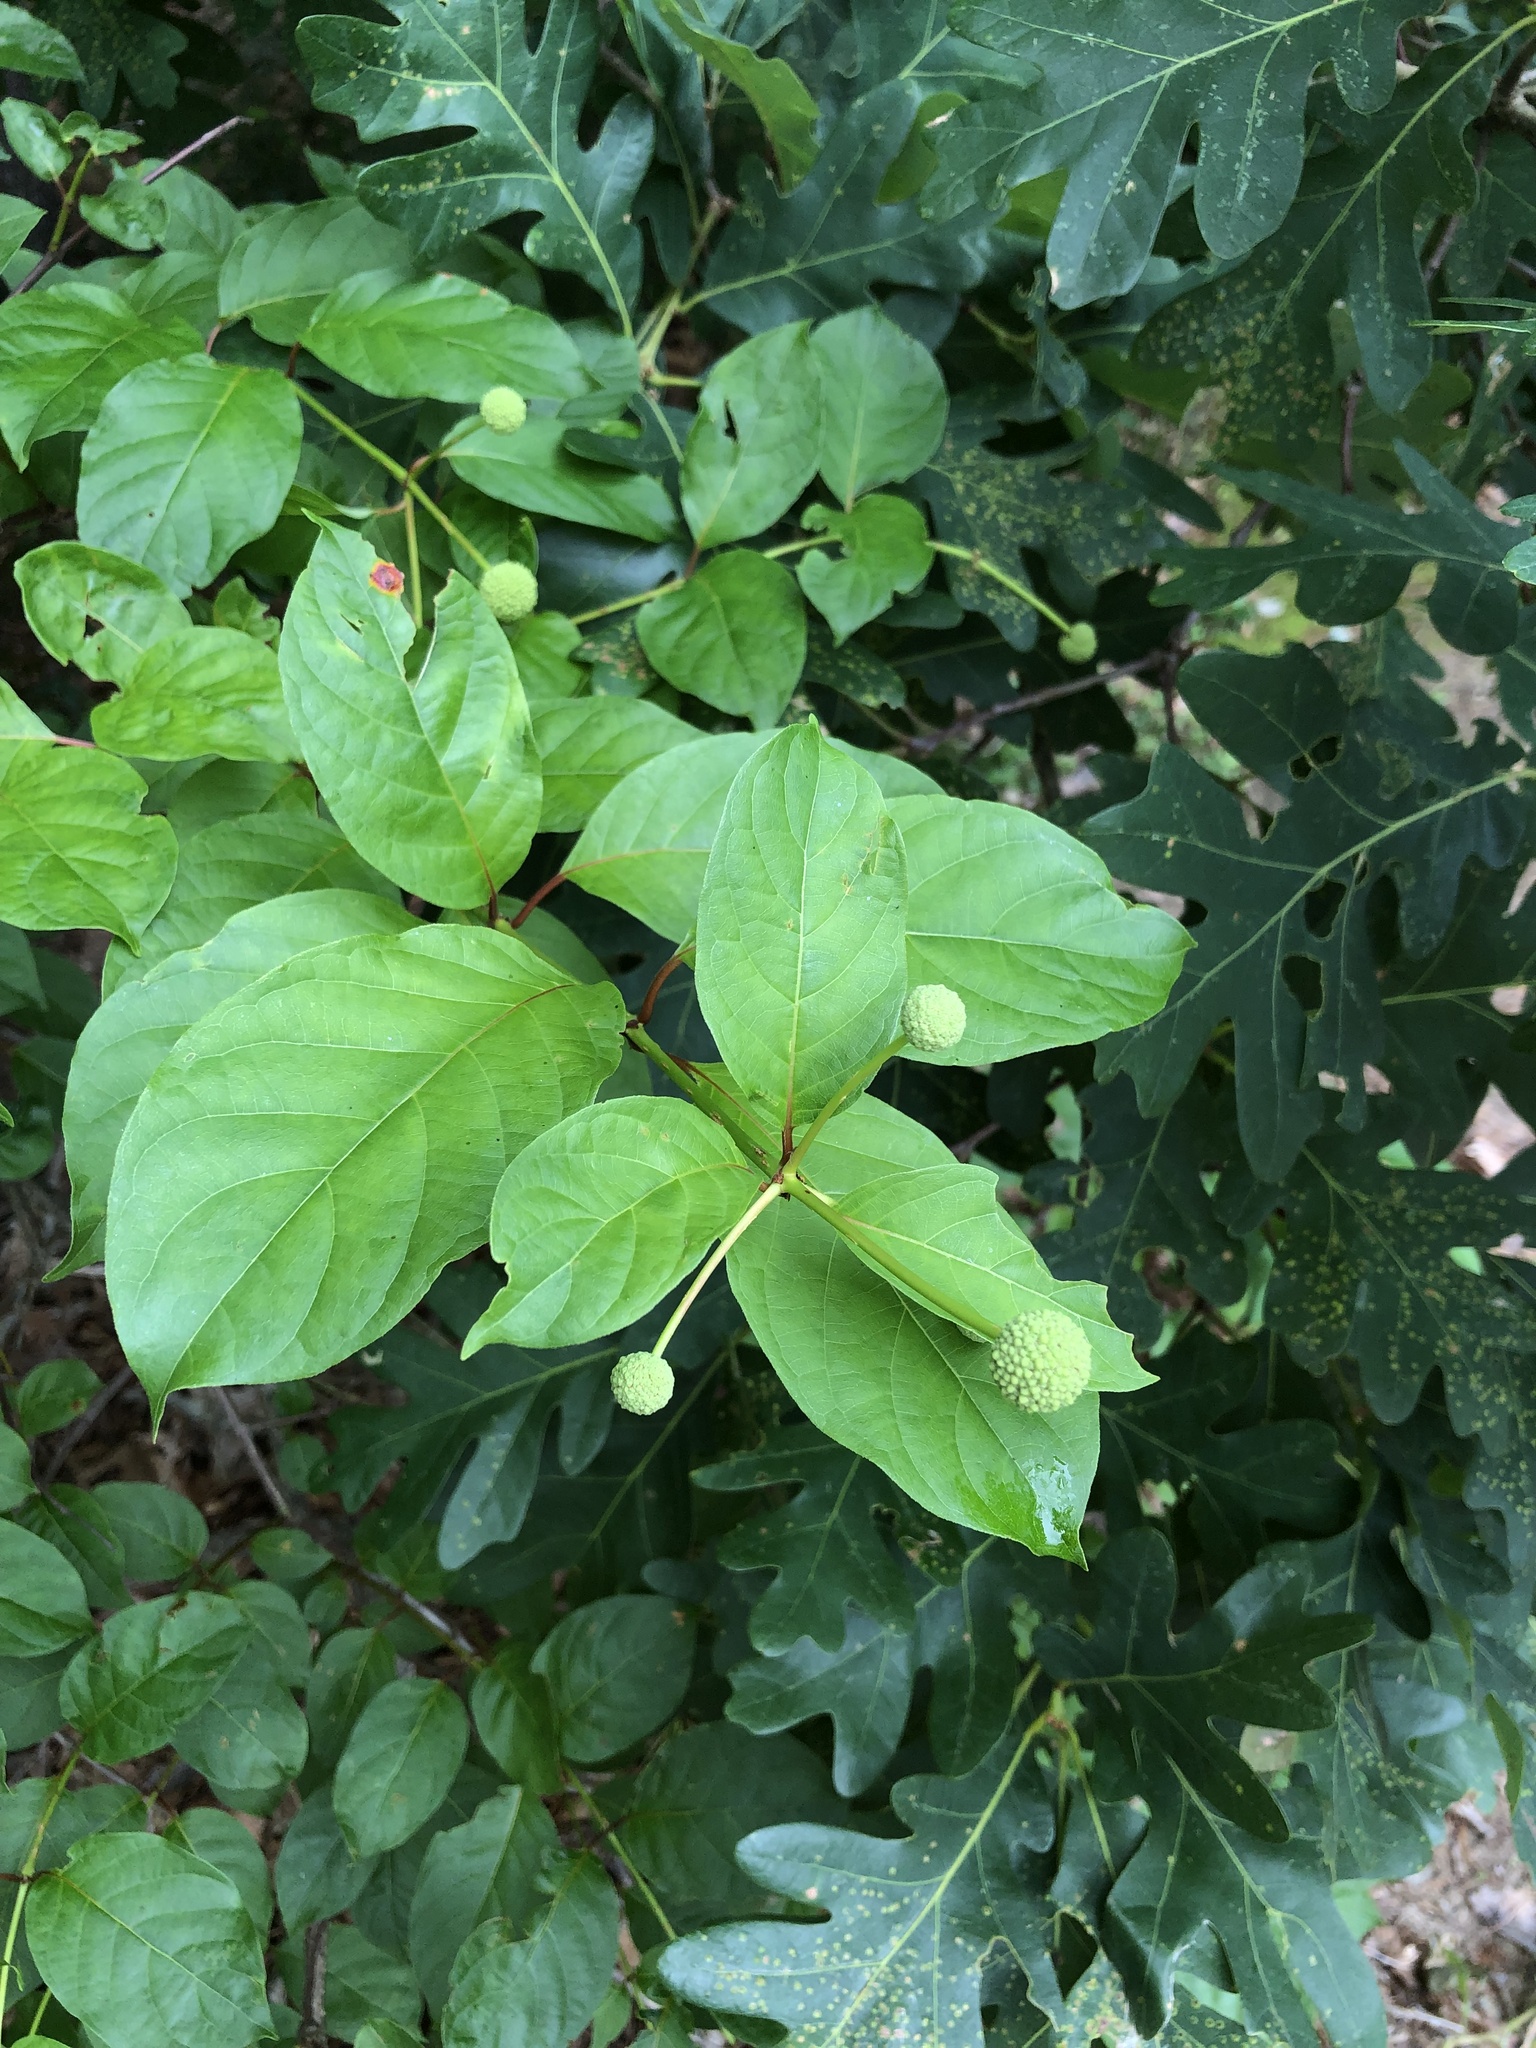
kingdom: Plantae
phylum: Tracheophyta
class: Magnoliopsida
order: Gentianales
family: Rubiaceae
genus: Cephalanthus
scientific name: Cephalanthus occidentalis
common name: Button-willow
